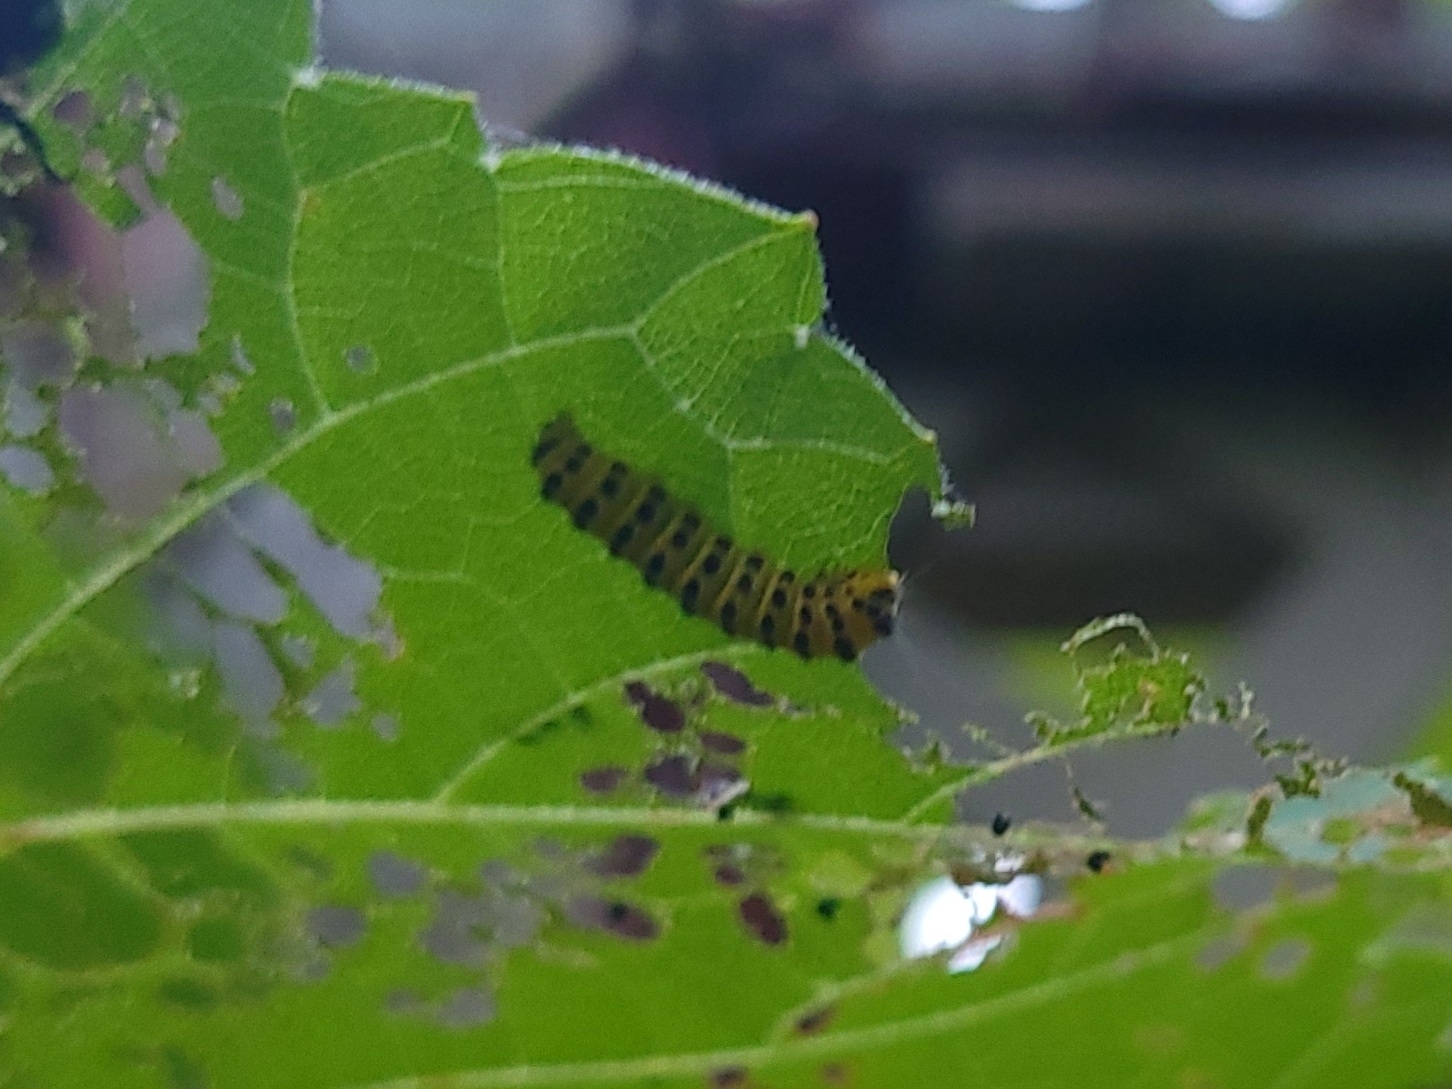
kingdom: Animalia
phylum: Arthropoda
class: Insecta
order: Lepidoptera
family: Zygaenidae
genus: Harrisina
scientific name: Harrisina americana
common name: Grapeleaf skeletonizer moth
